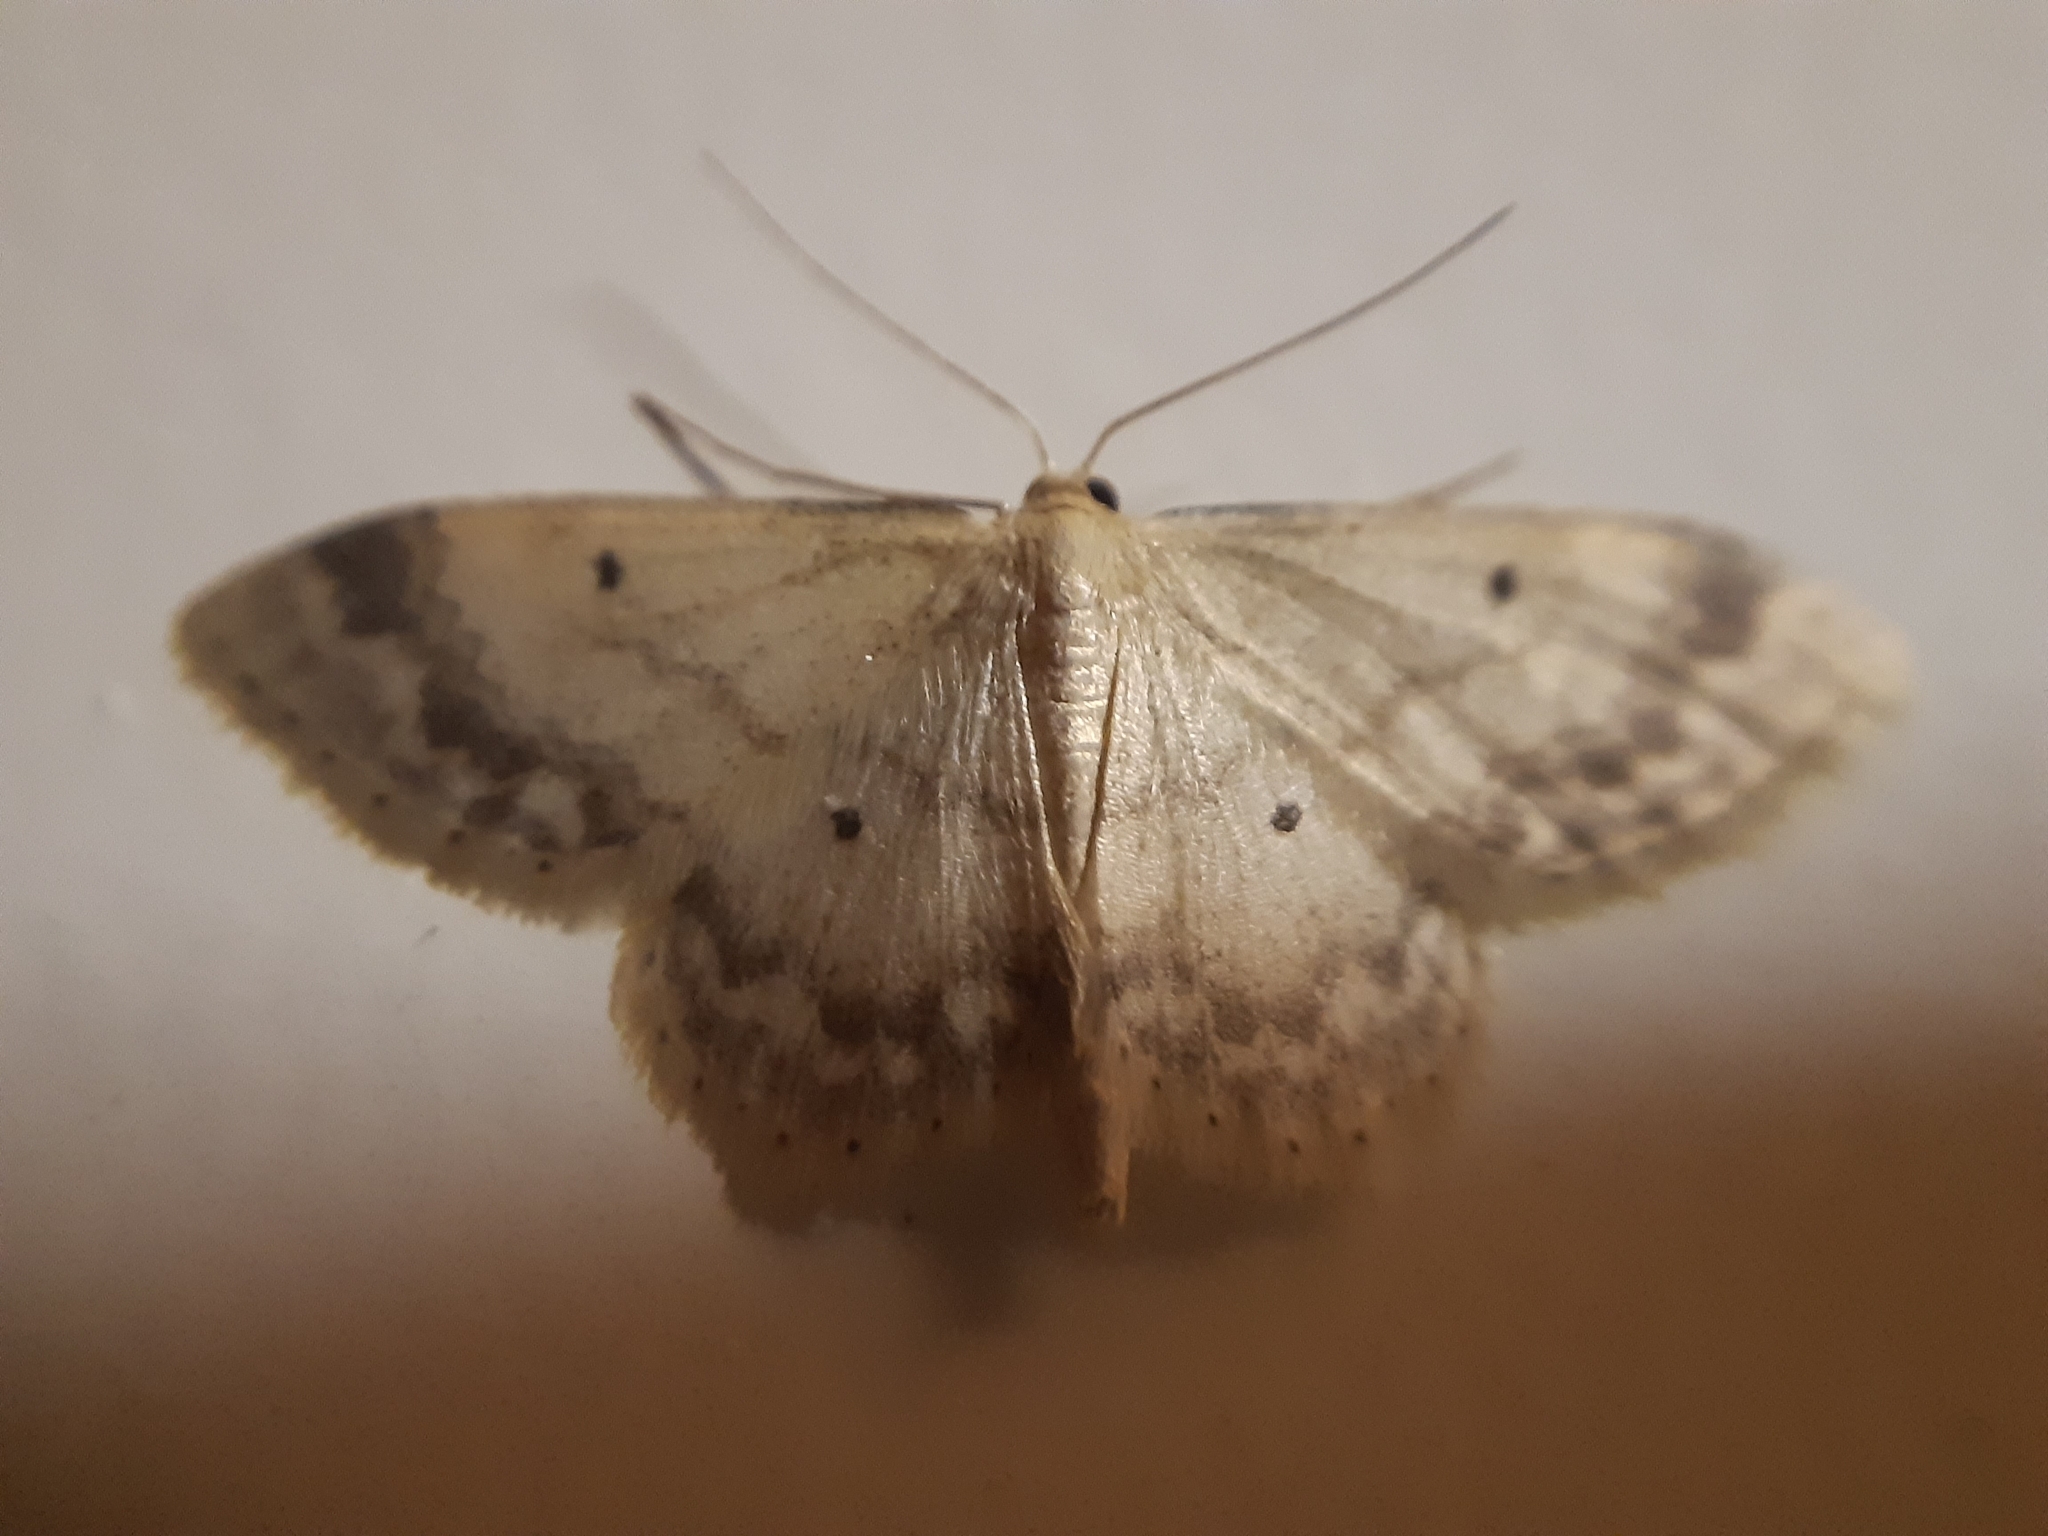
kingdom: Animalia
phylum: Arthropoda
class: Insecta
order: Lepidoptera
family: Geometridae
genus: Idaea
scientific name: Idaea biselata
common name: Small fan-footed wave
